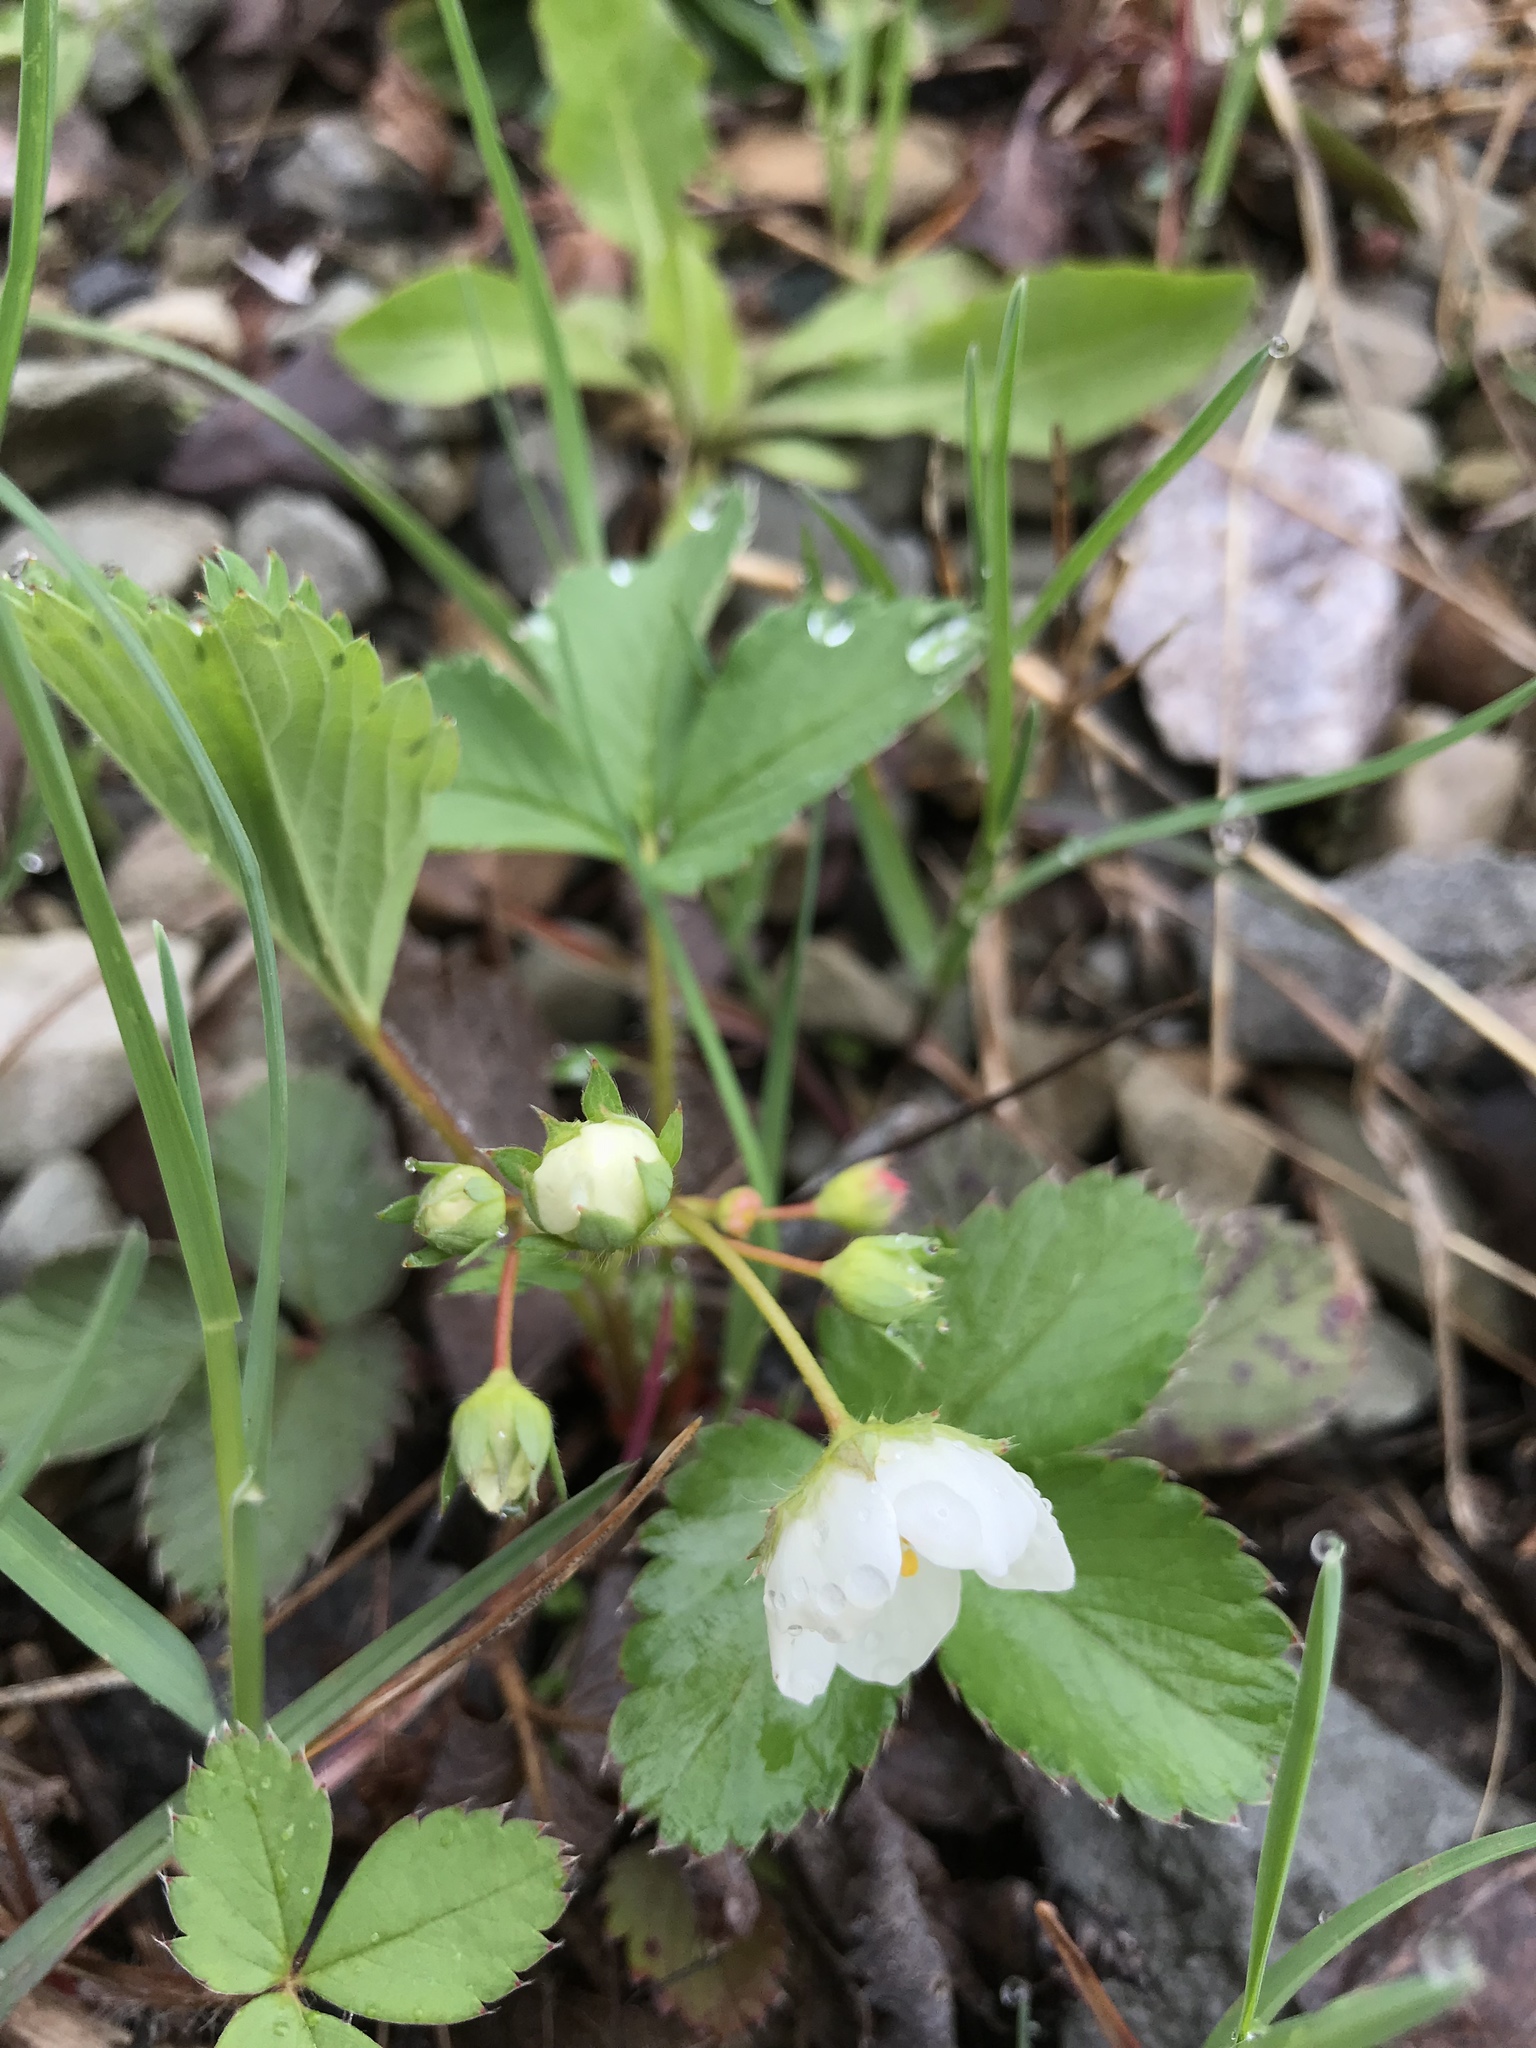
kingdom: Plantae
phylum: Tracheophyta
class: Magnoliopsida
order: Rosales
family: Rosaceae
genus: Fragaria
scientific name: Fragaria virginiana
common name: Thickleaved wild strawberry
